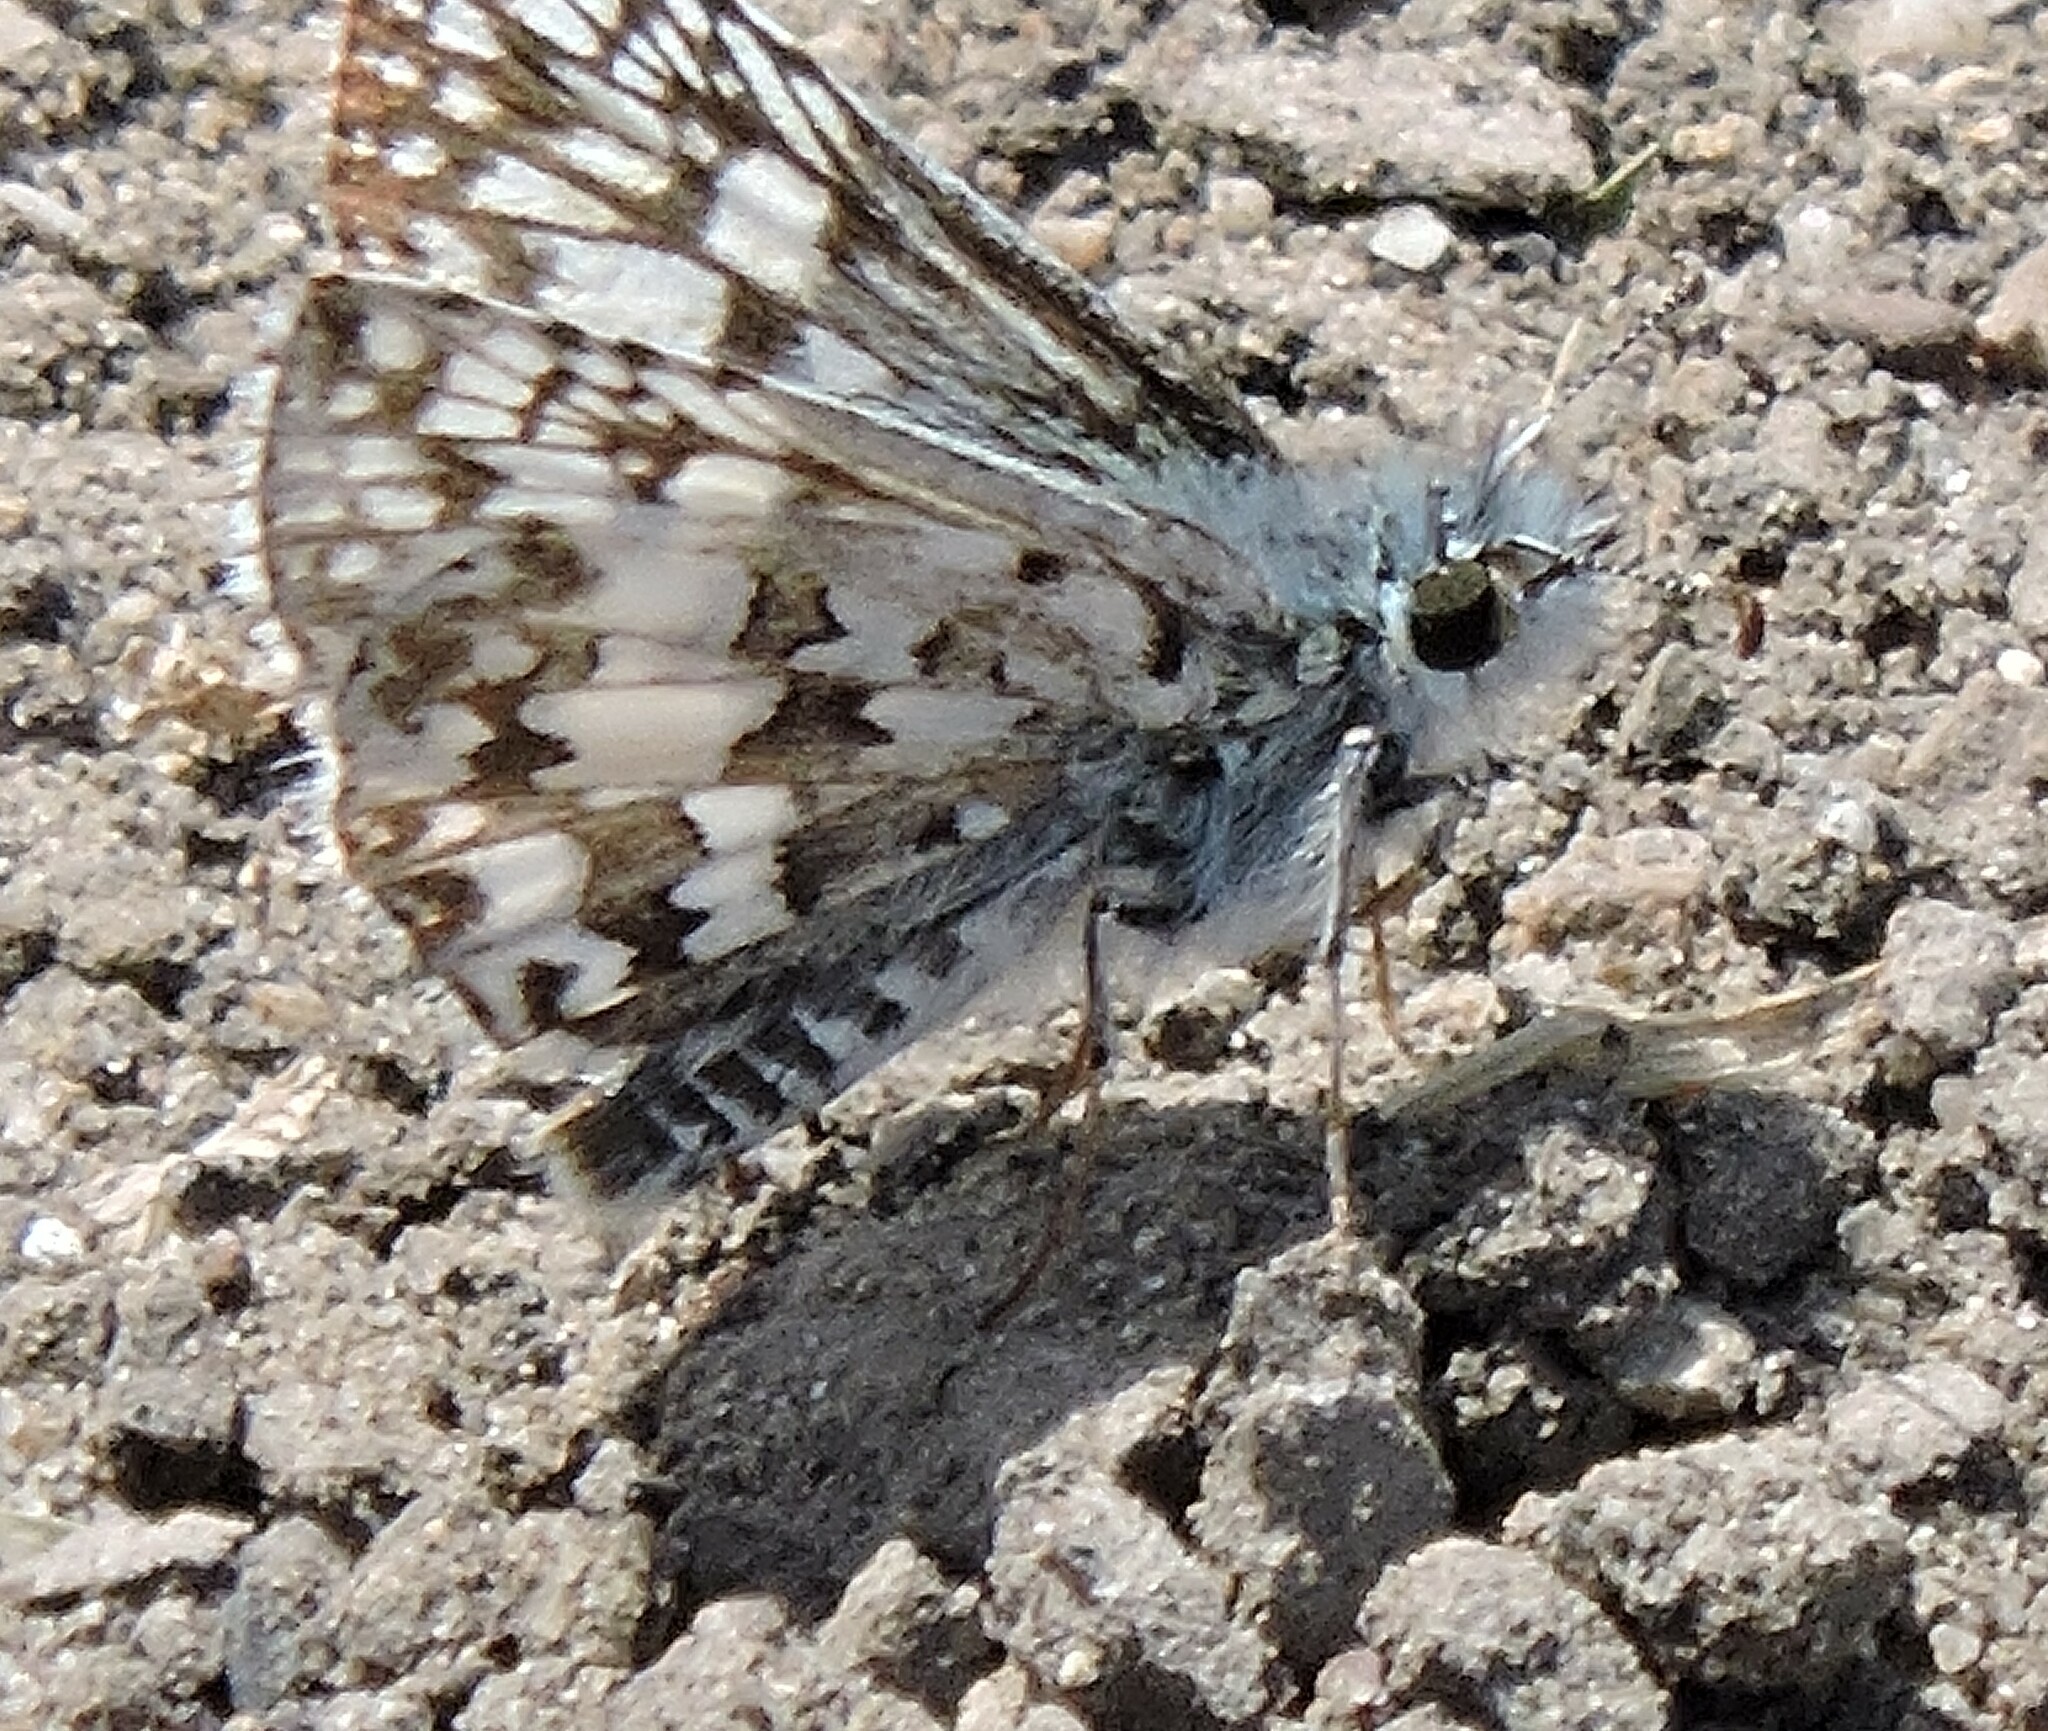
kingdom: Animalia
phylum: Arthropoda
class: Insecta
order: Lepidoptera
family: Hesperiidae
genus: Burnsius
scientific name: Burnsius communis
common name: Common checkered-skipper
